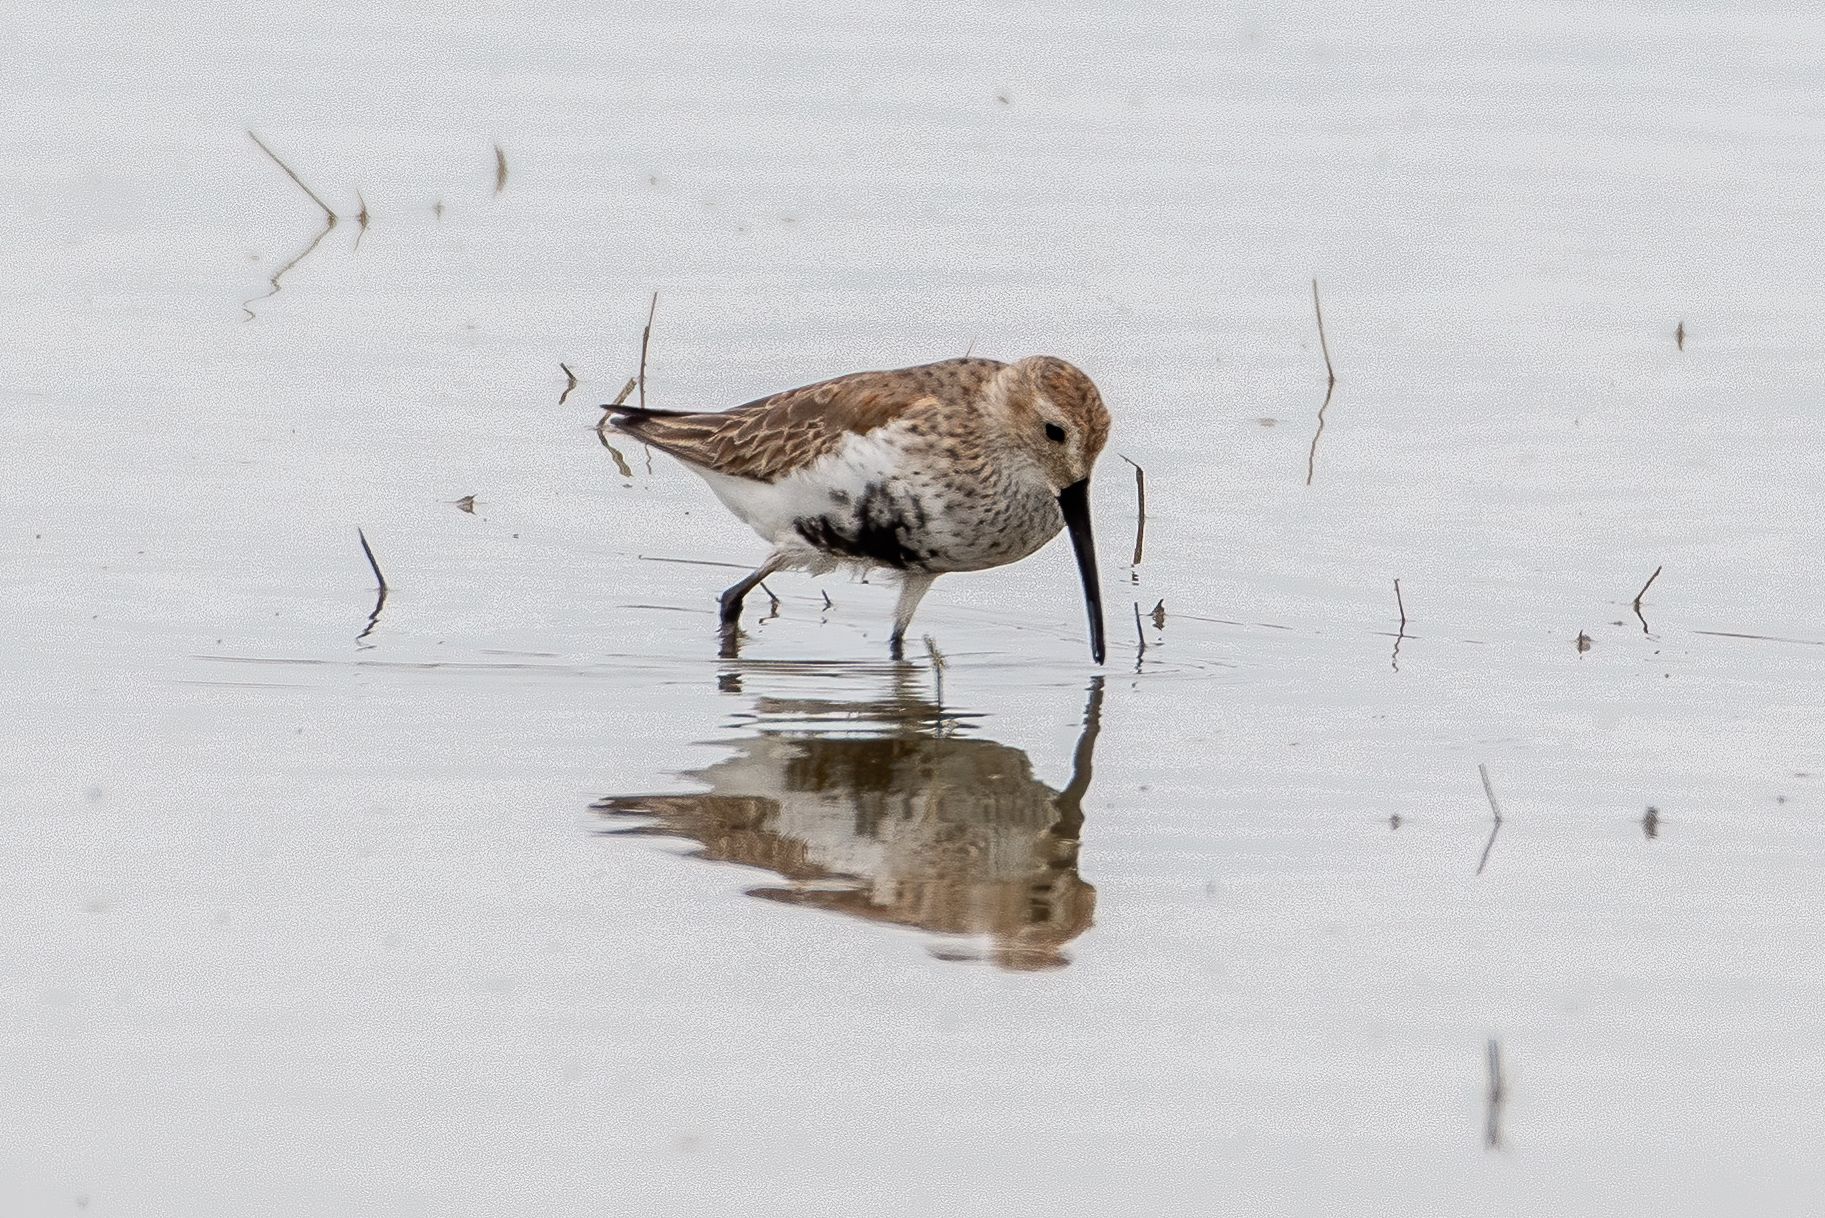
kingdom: Animalia
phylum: Chordata
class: Aves
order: Charadriiformes
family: Scolopacidae
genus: Calidris
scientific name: Calidris alpina
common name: Dunlin
